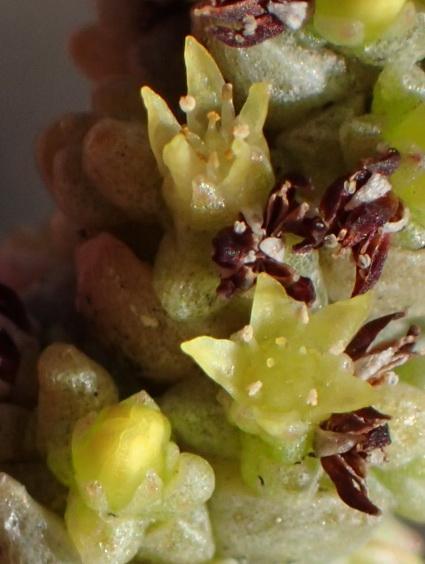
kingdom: Plantae
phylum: Tracheophyta
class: Magnoliopsida
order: Saxifragales
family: Crassulaceae
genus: Crassula
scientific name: Crassula muscosa
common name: Toy-cypress
